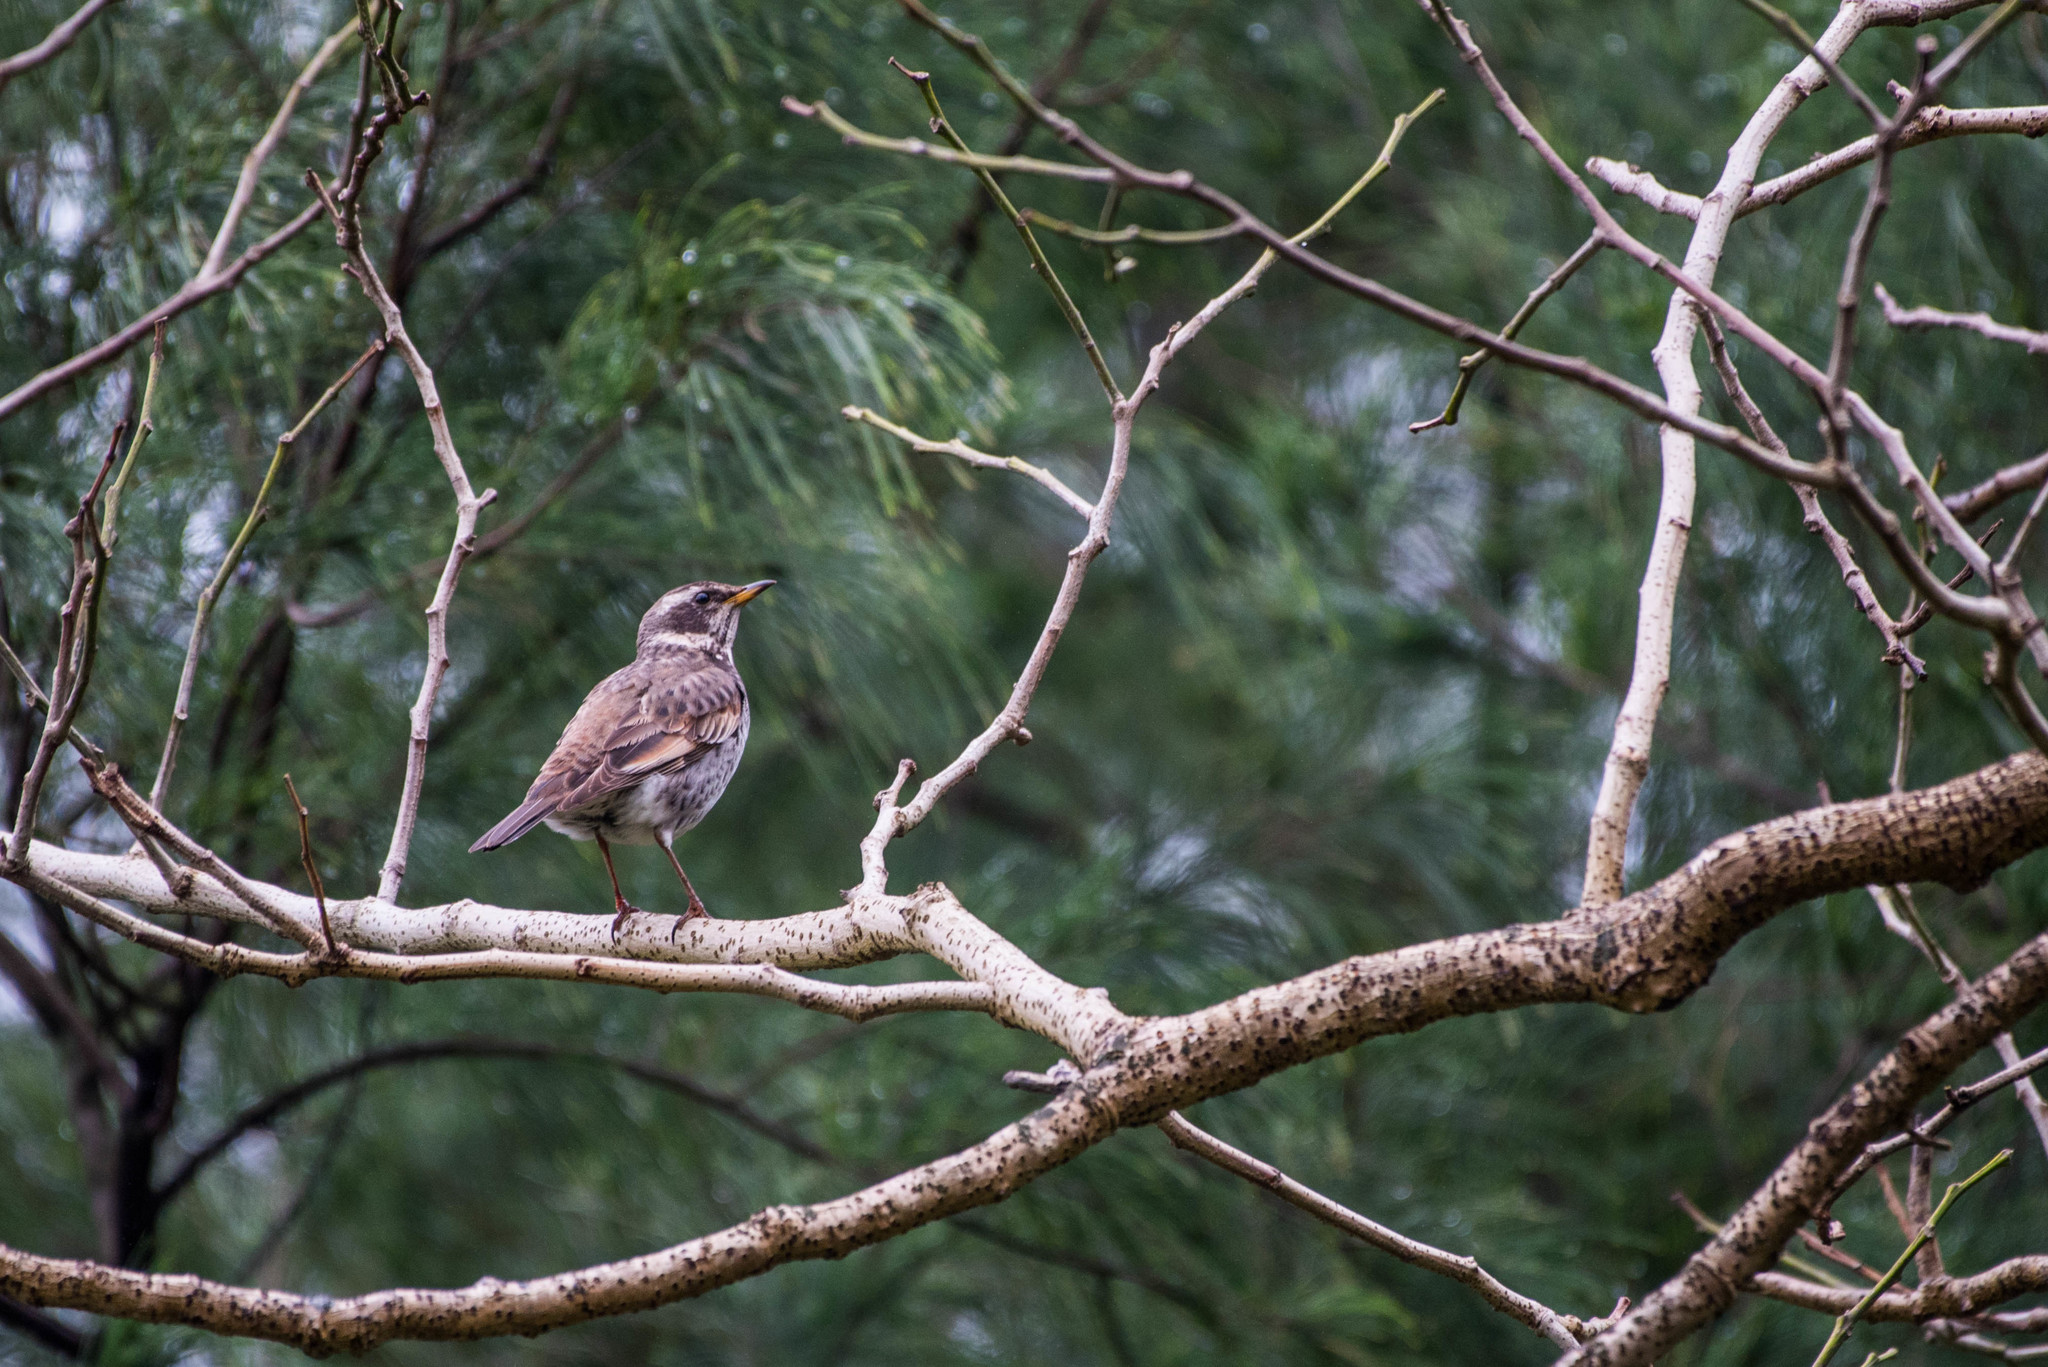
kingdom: Animalia
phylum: Chordata
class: Aves
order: Passeriformes
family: Turdidae
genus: Turdus
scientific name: Turdus eunomus
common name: Dusky thrush
